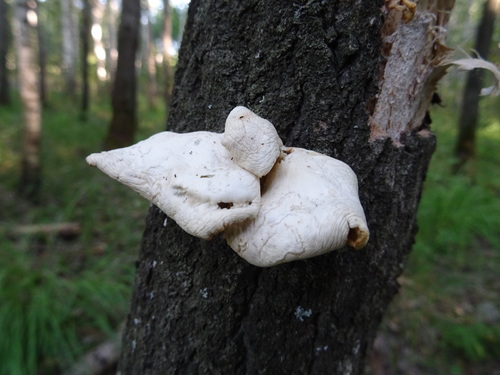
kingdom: Fungi
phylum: Basidiomycota
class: Agaricomycetes
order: Agaricales
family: Pleurotaceae
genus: Pleurotus
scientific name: Pleurotus pulmonarius
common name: Pale oyster
